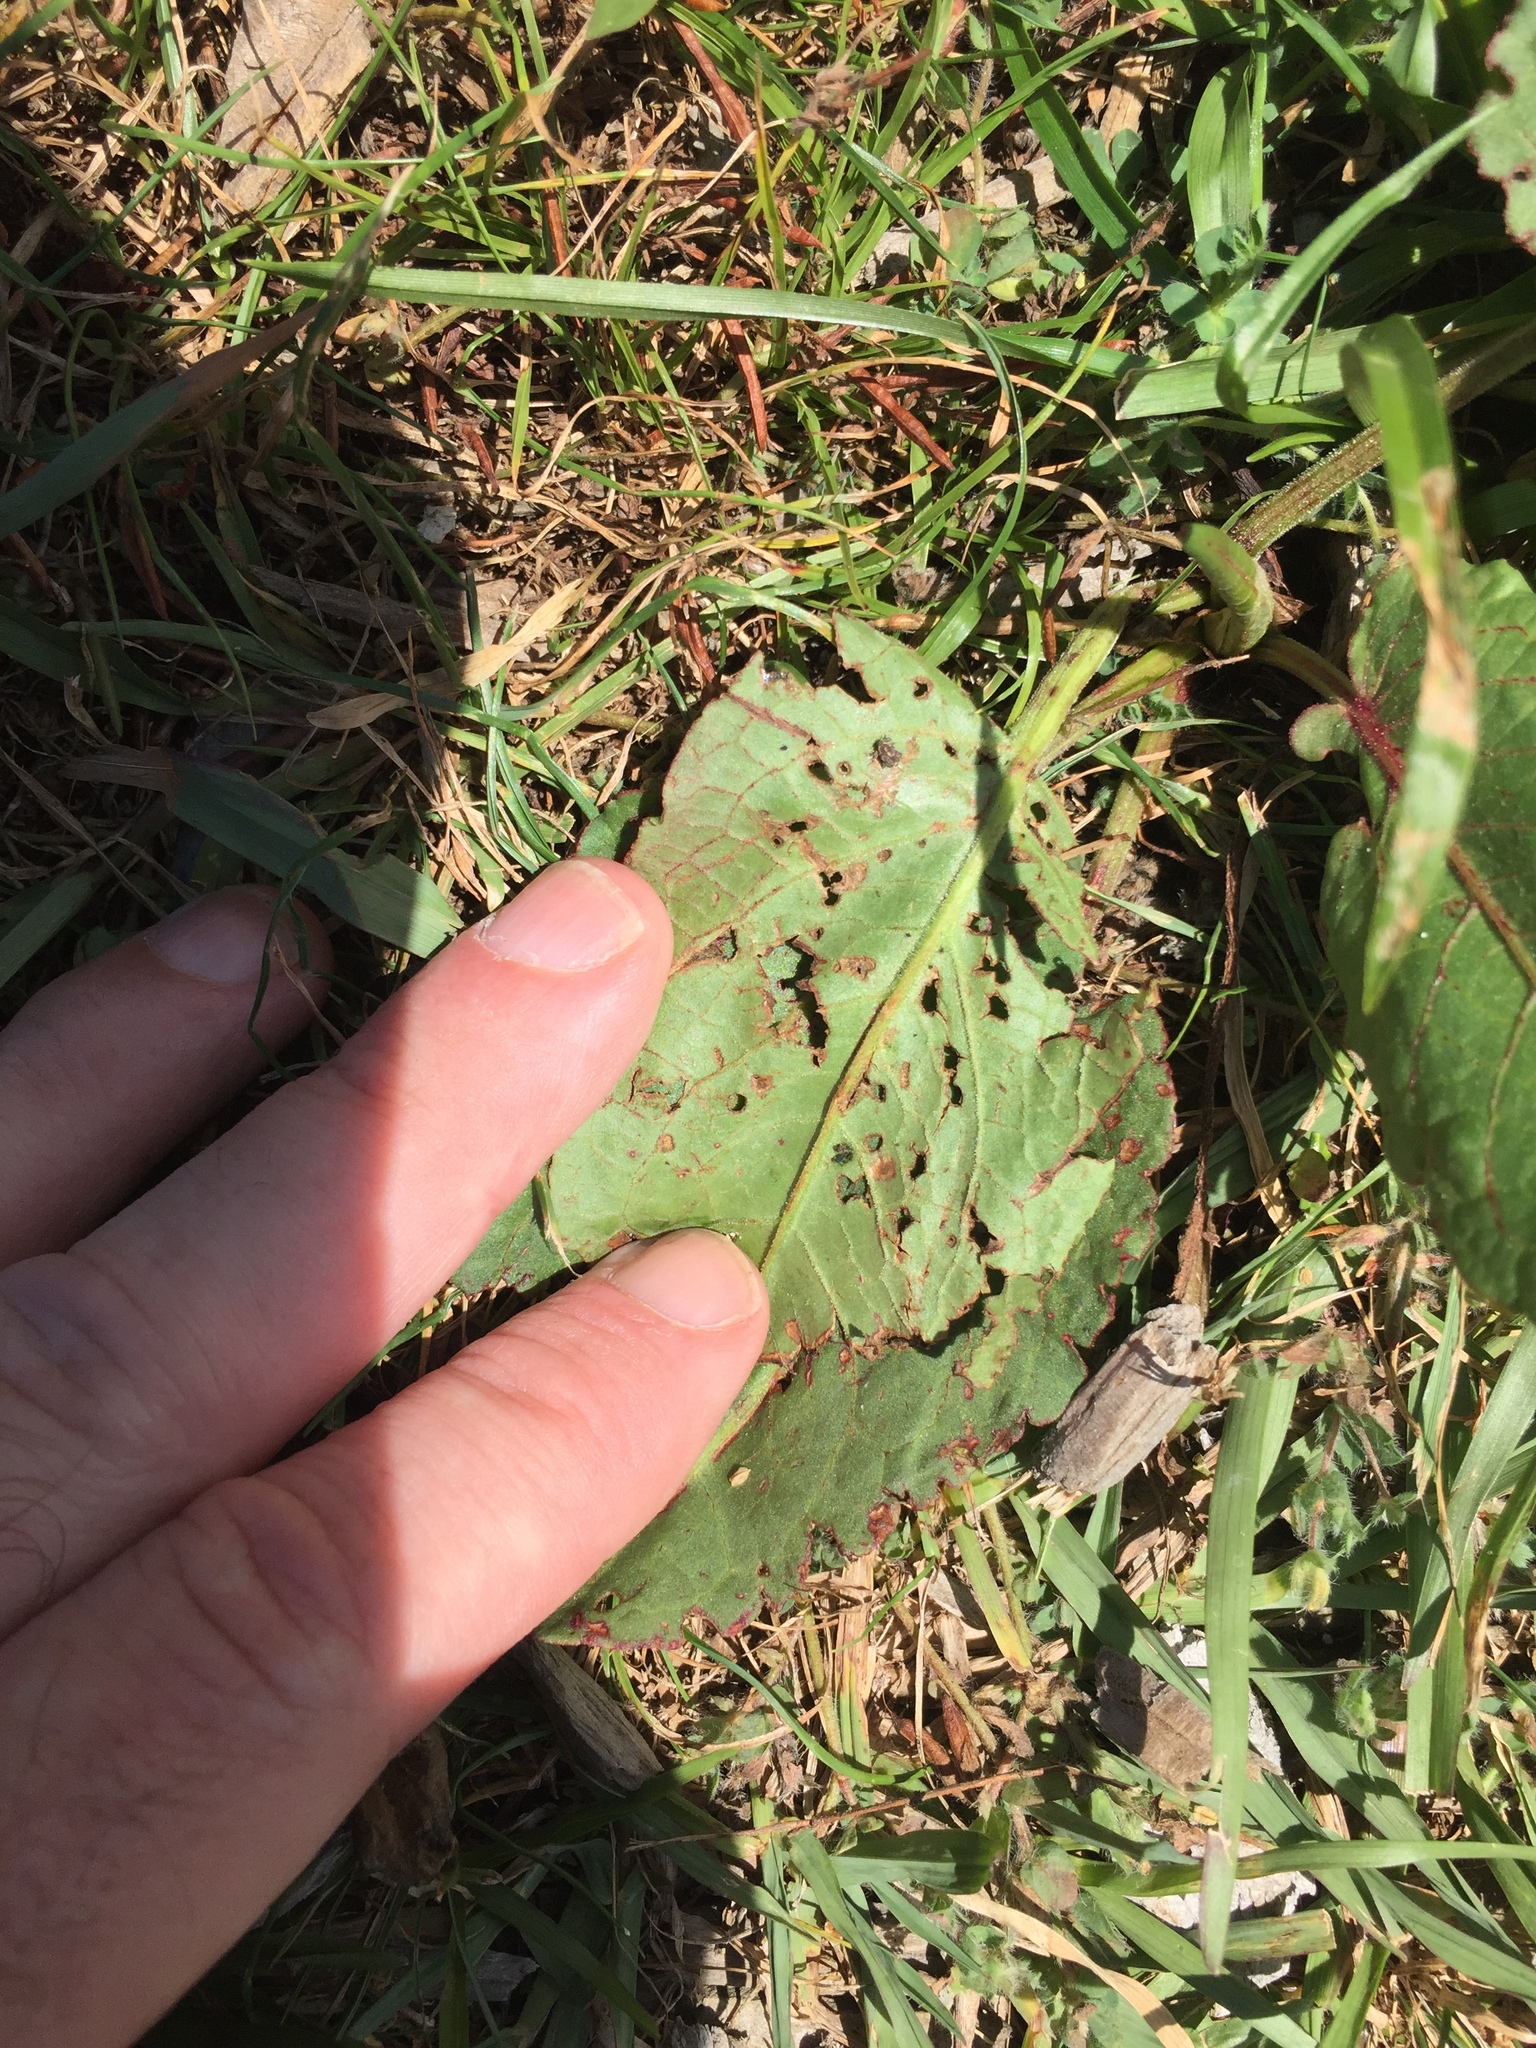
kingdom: Animalia
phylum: Arthropoda
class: Insecta
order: Coleoptera
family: Curculionidae
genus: Rhinoncus
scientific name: Rhinoncus australis
